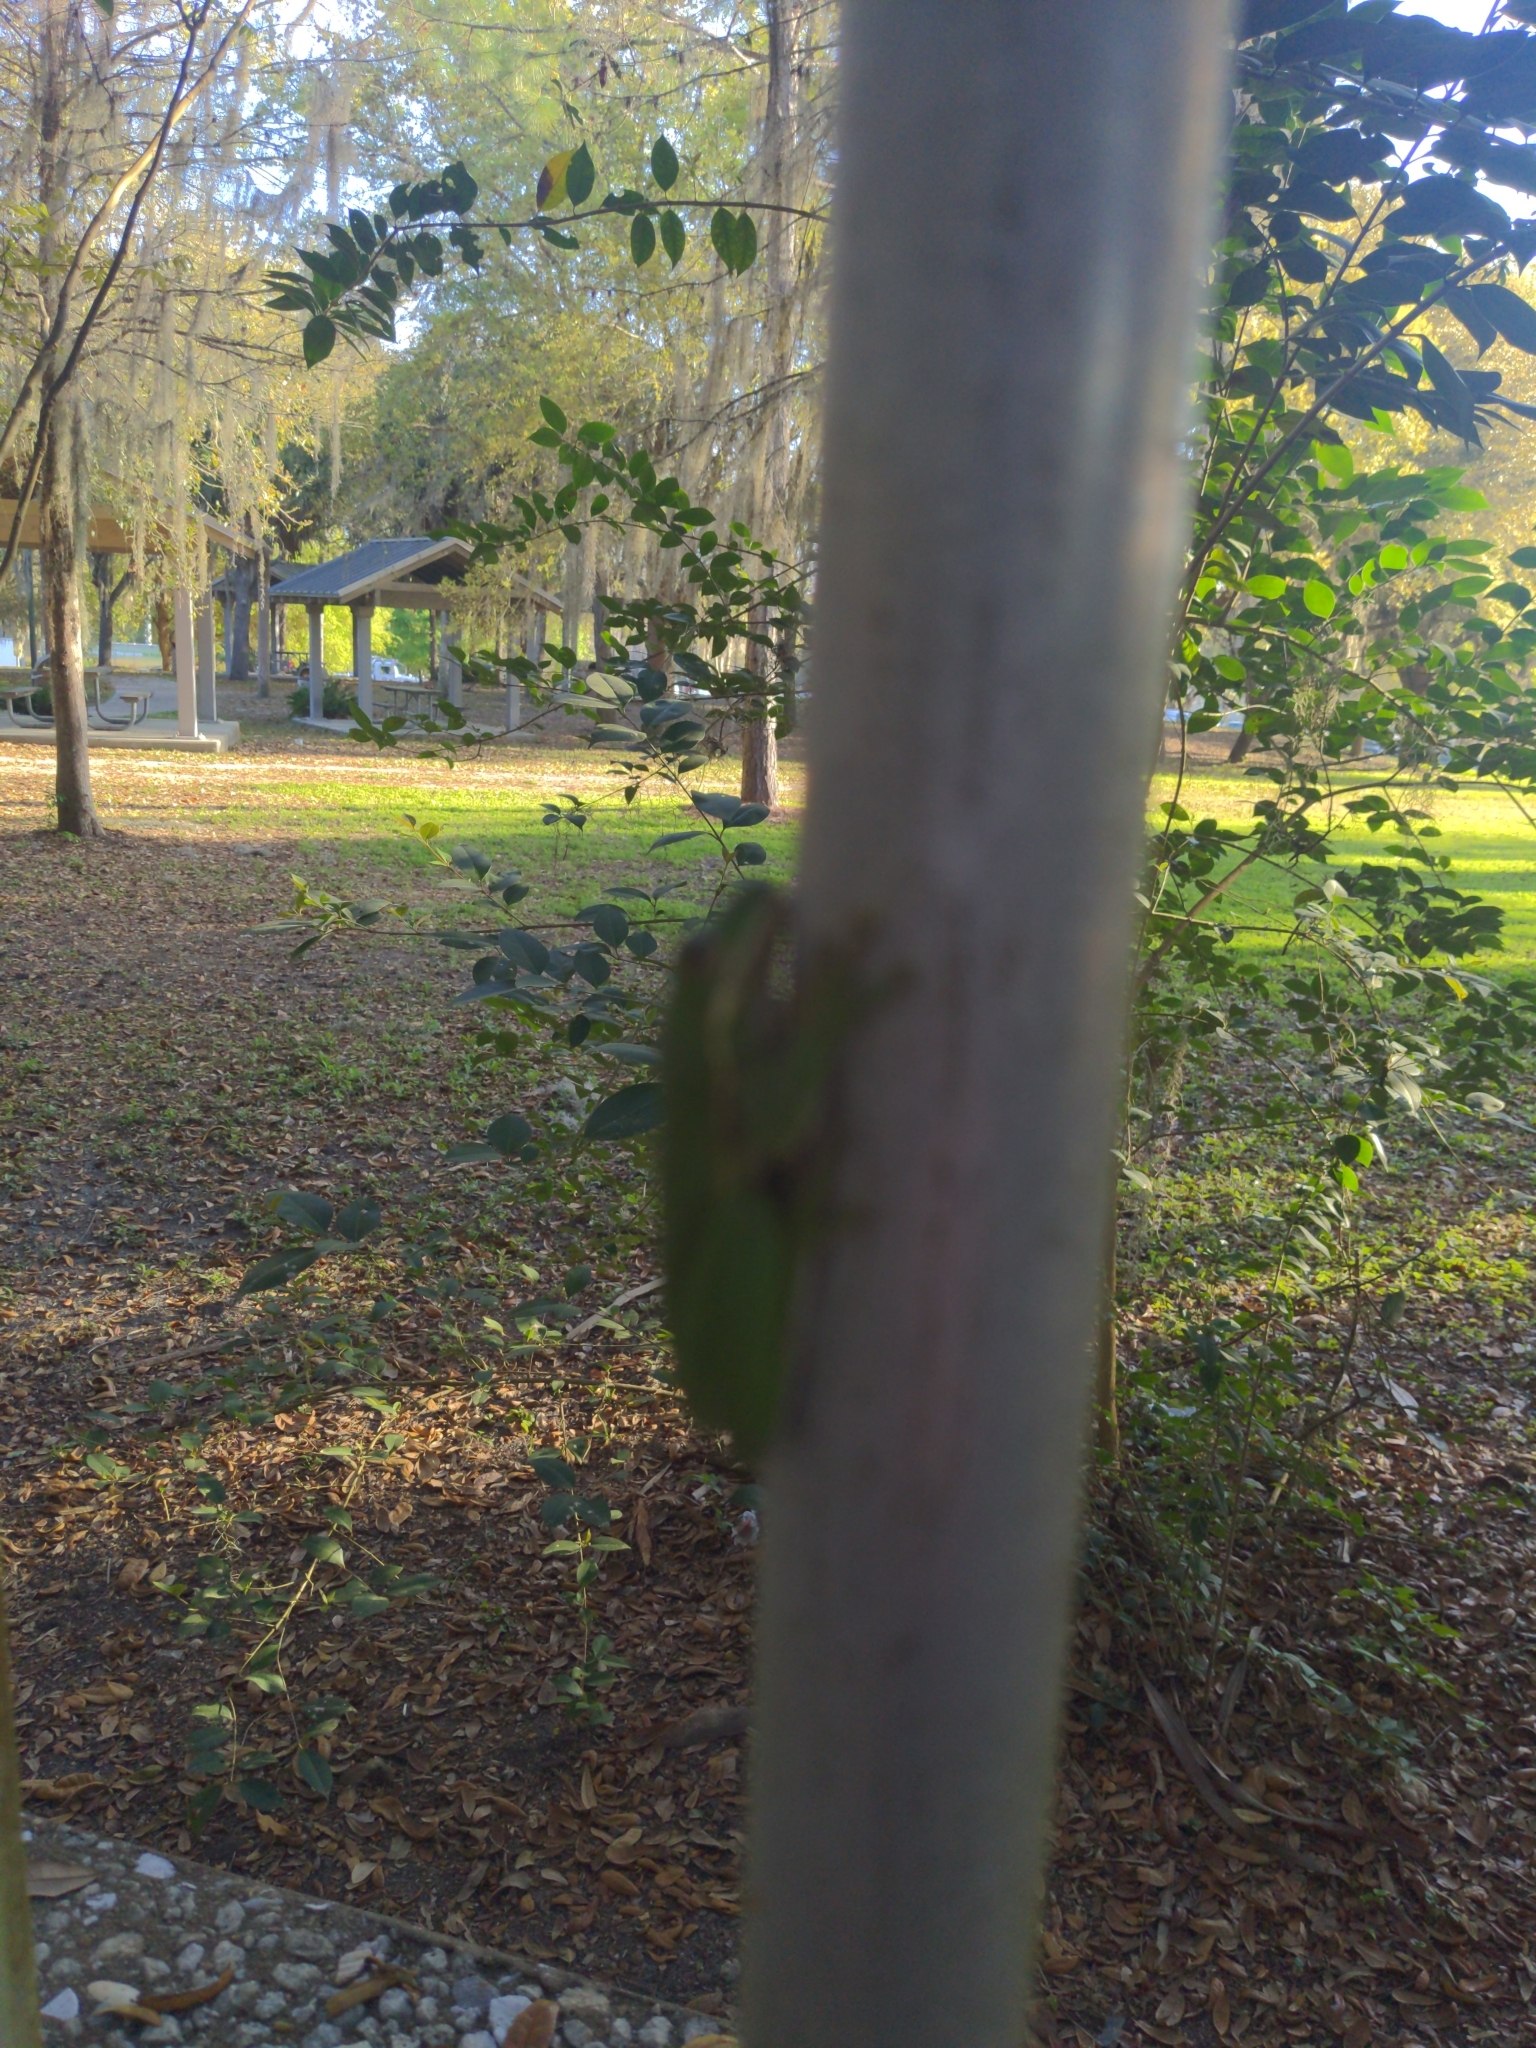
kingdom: Animalia
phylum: Chordata
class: Amphibia
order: Anura
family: Hylidae
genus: Dryophytes
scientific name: Dryophytes cinereus
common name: Green treefrog
